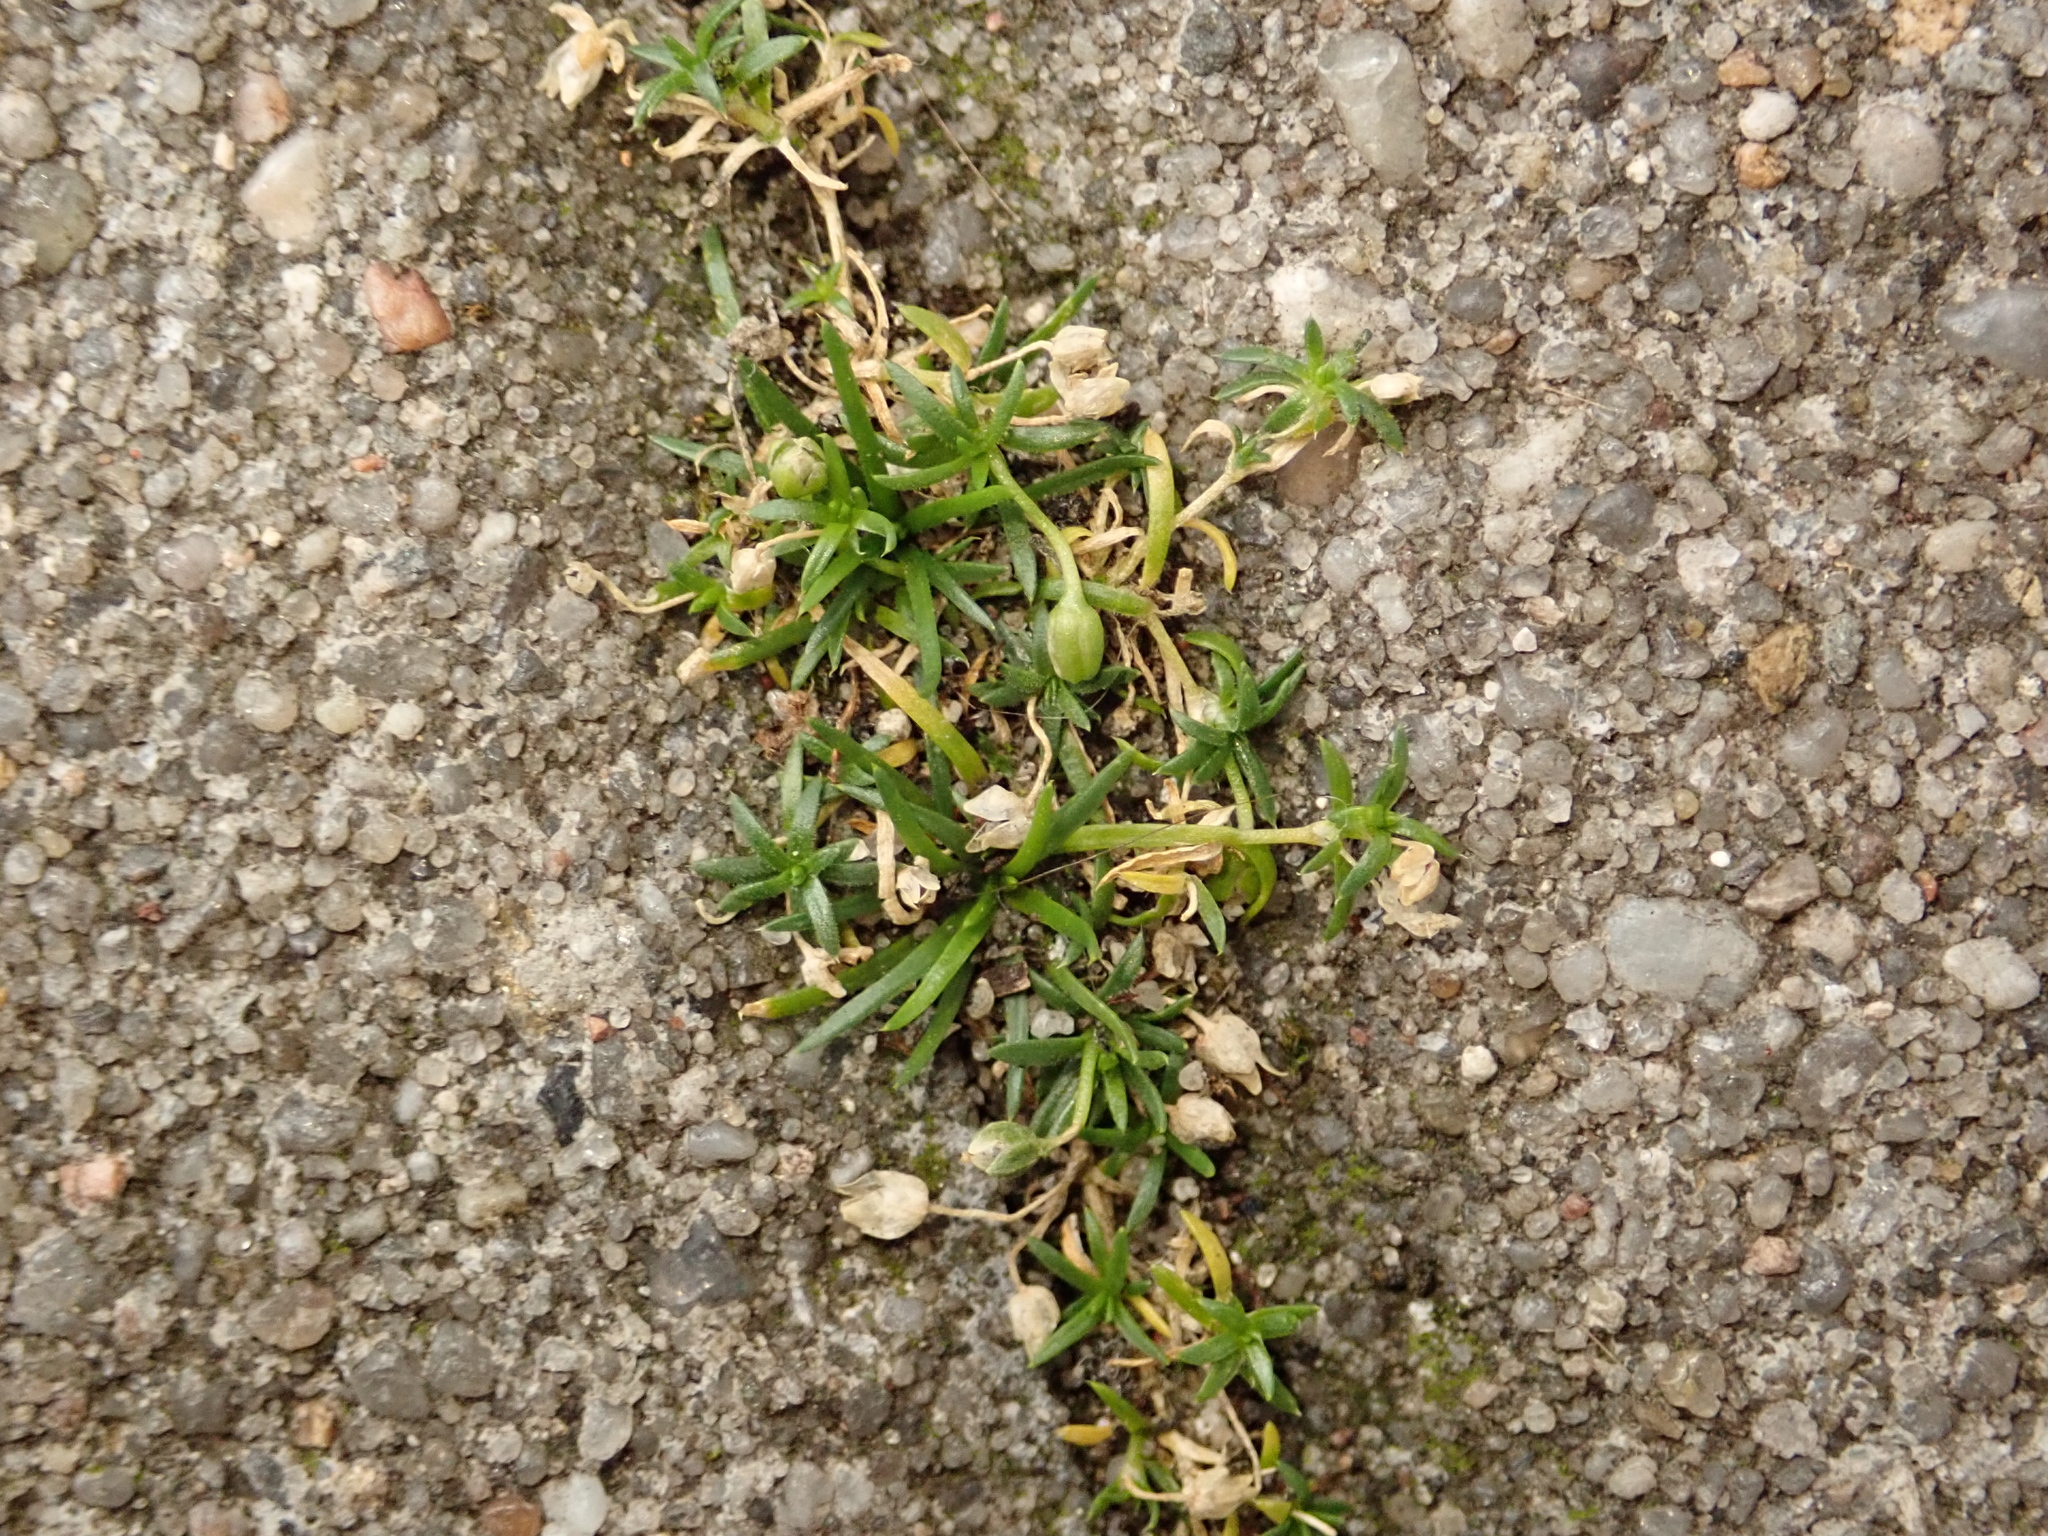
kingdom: Plantae
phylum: Tracheophyta
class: Magnoliopsida
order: Caryophyllales
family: Caryophyllaceae
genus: Sagina
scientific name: Sagina procumbens
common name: Procumbent pearlwort
